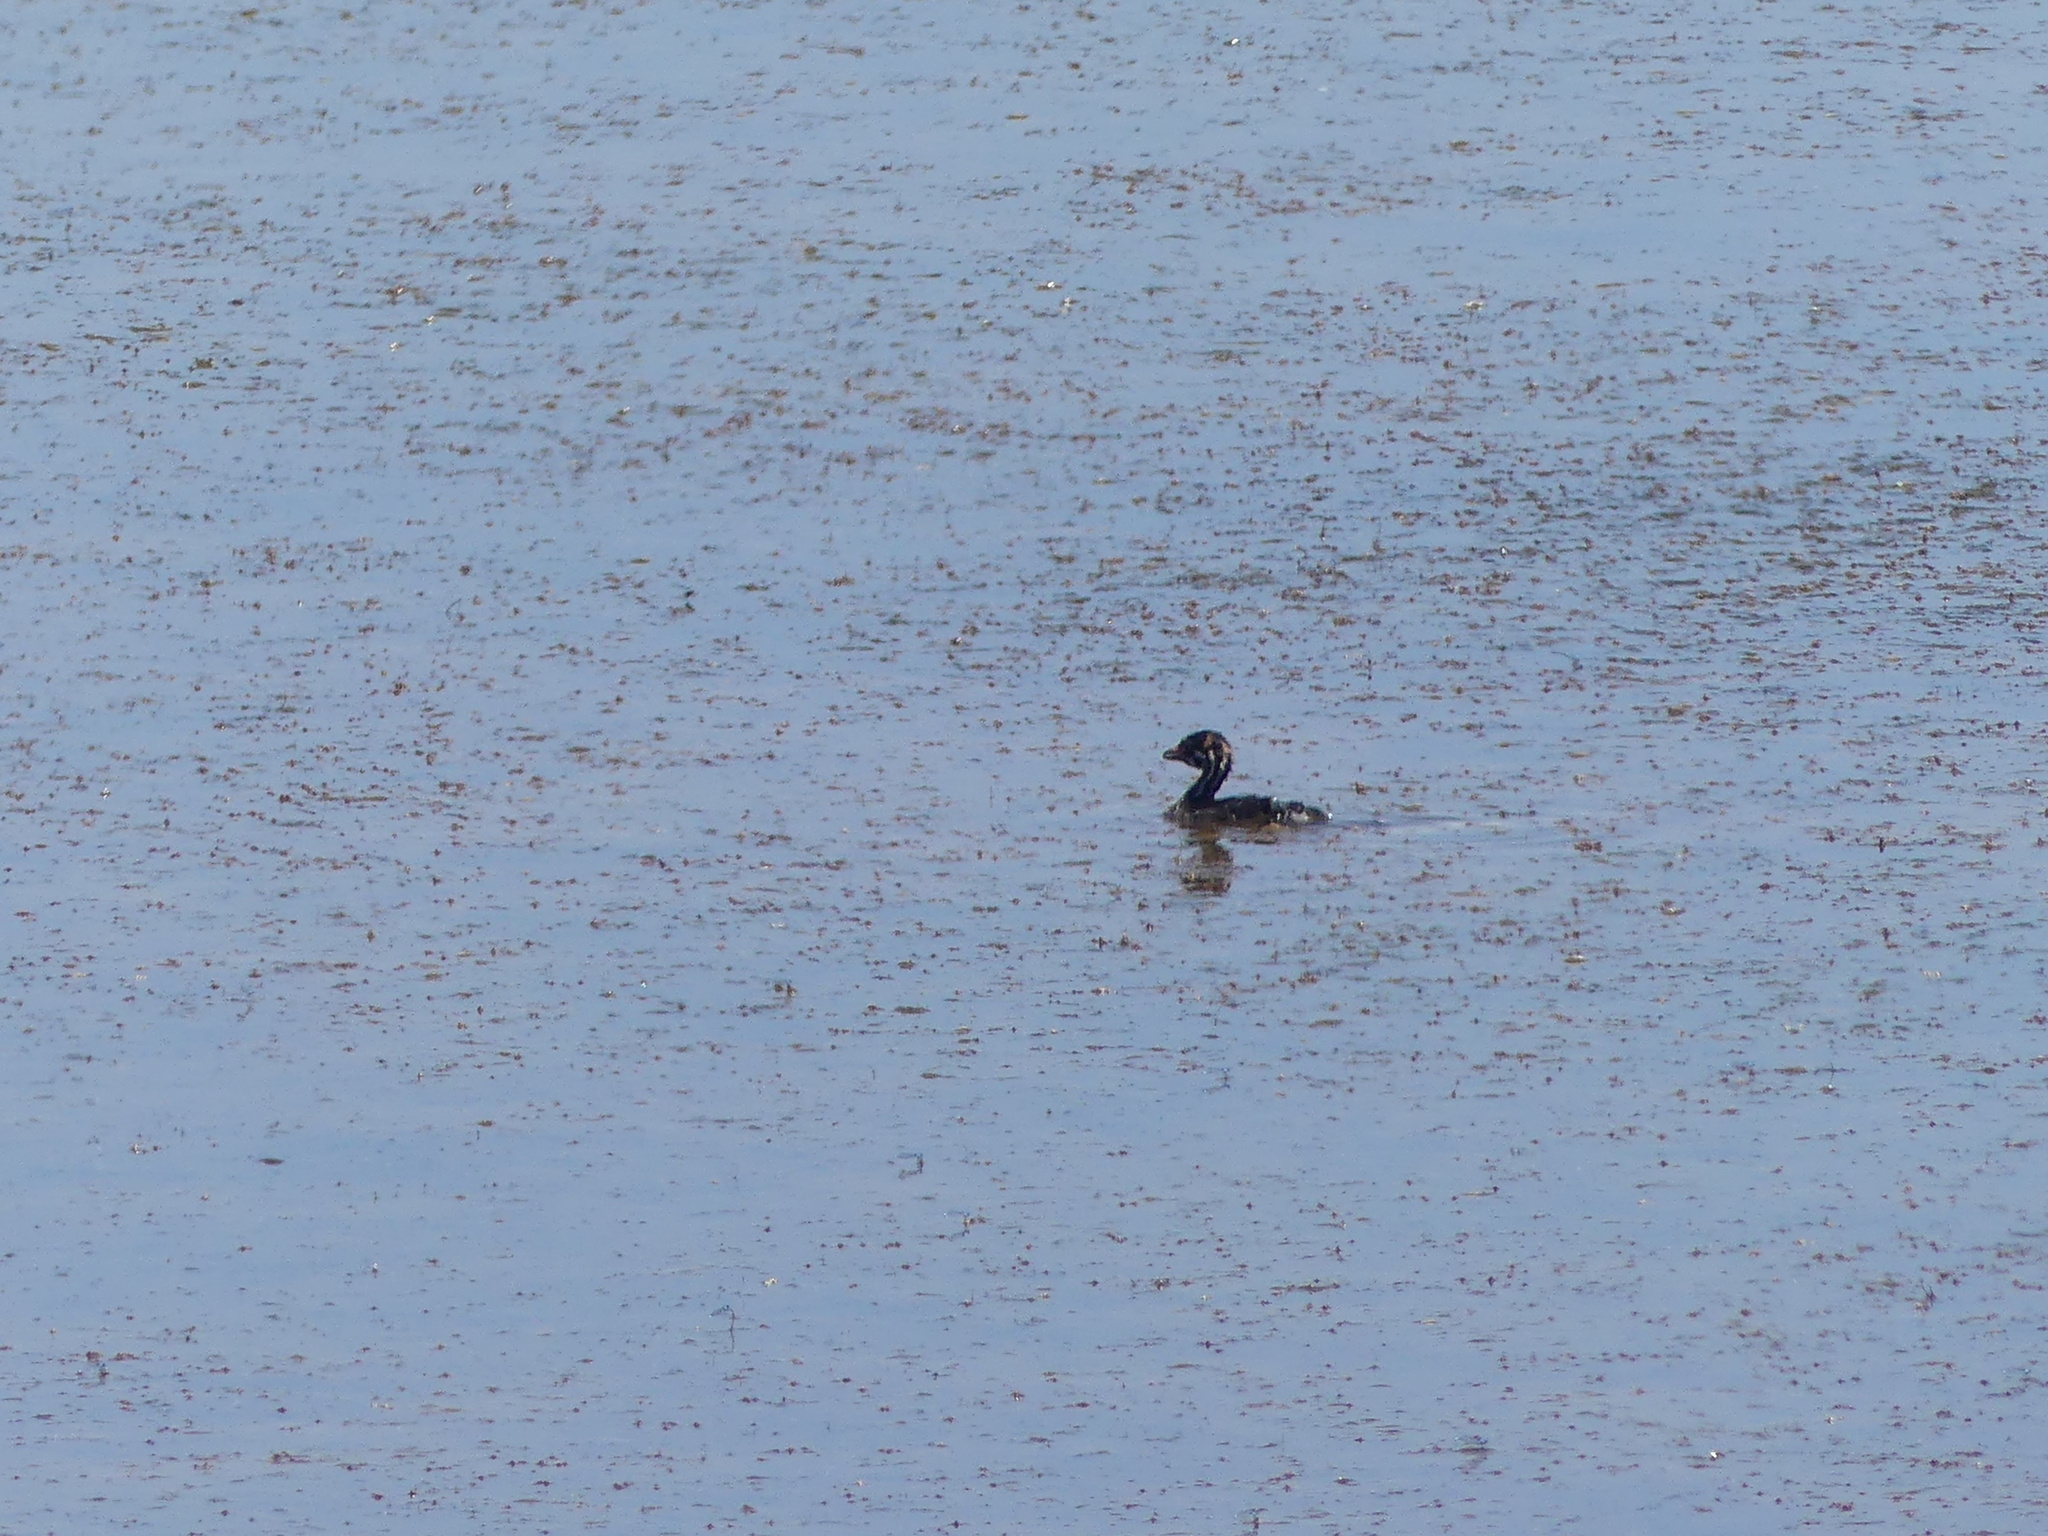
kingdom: Animalia
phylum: Chordata
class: Aves
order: Podicipediformes
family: Podicipedidae
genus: Podilymbus
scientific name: Podilymbus podiceps
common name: Pied-billed grebe
